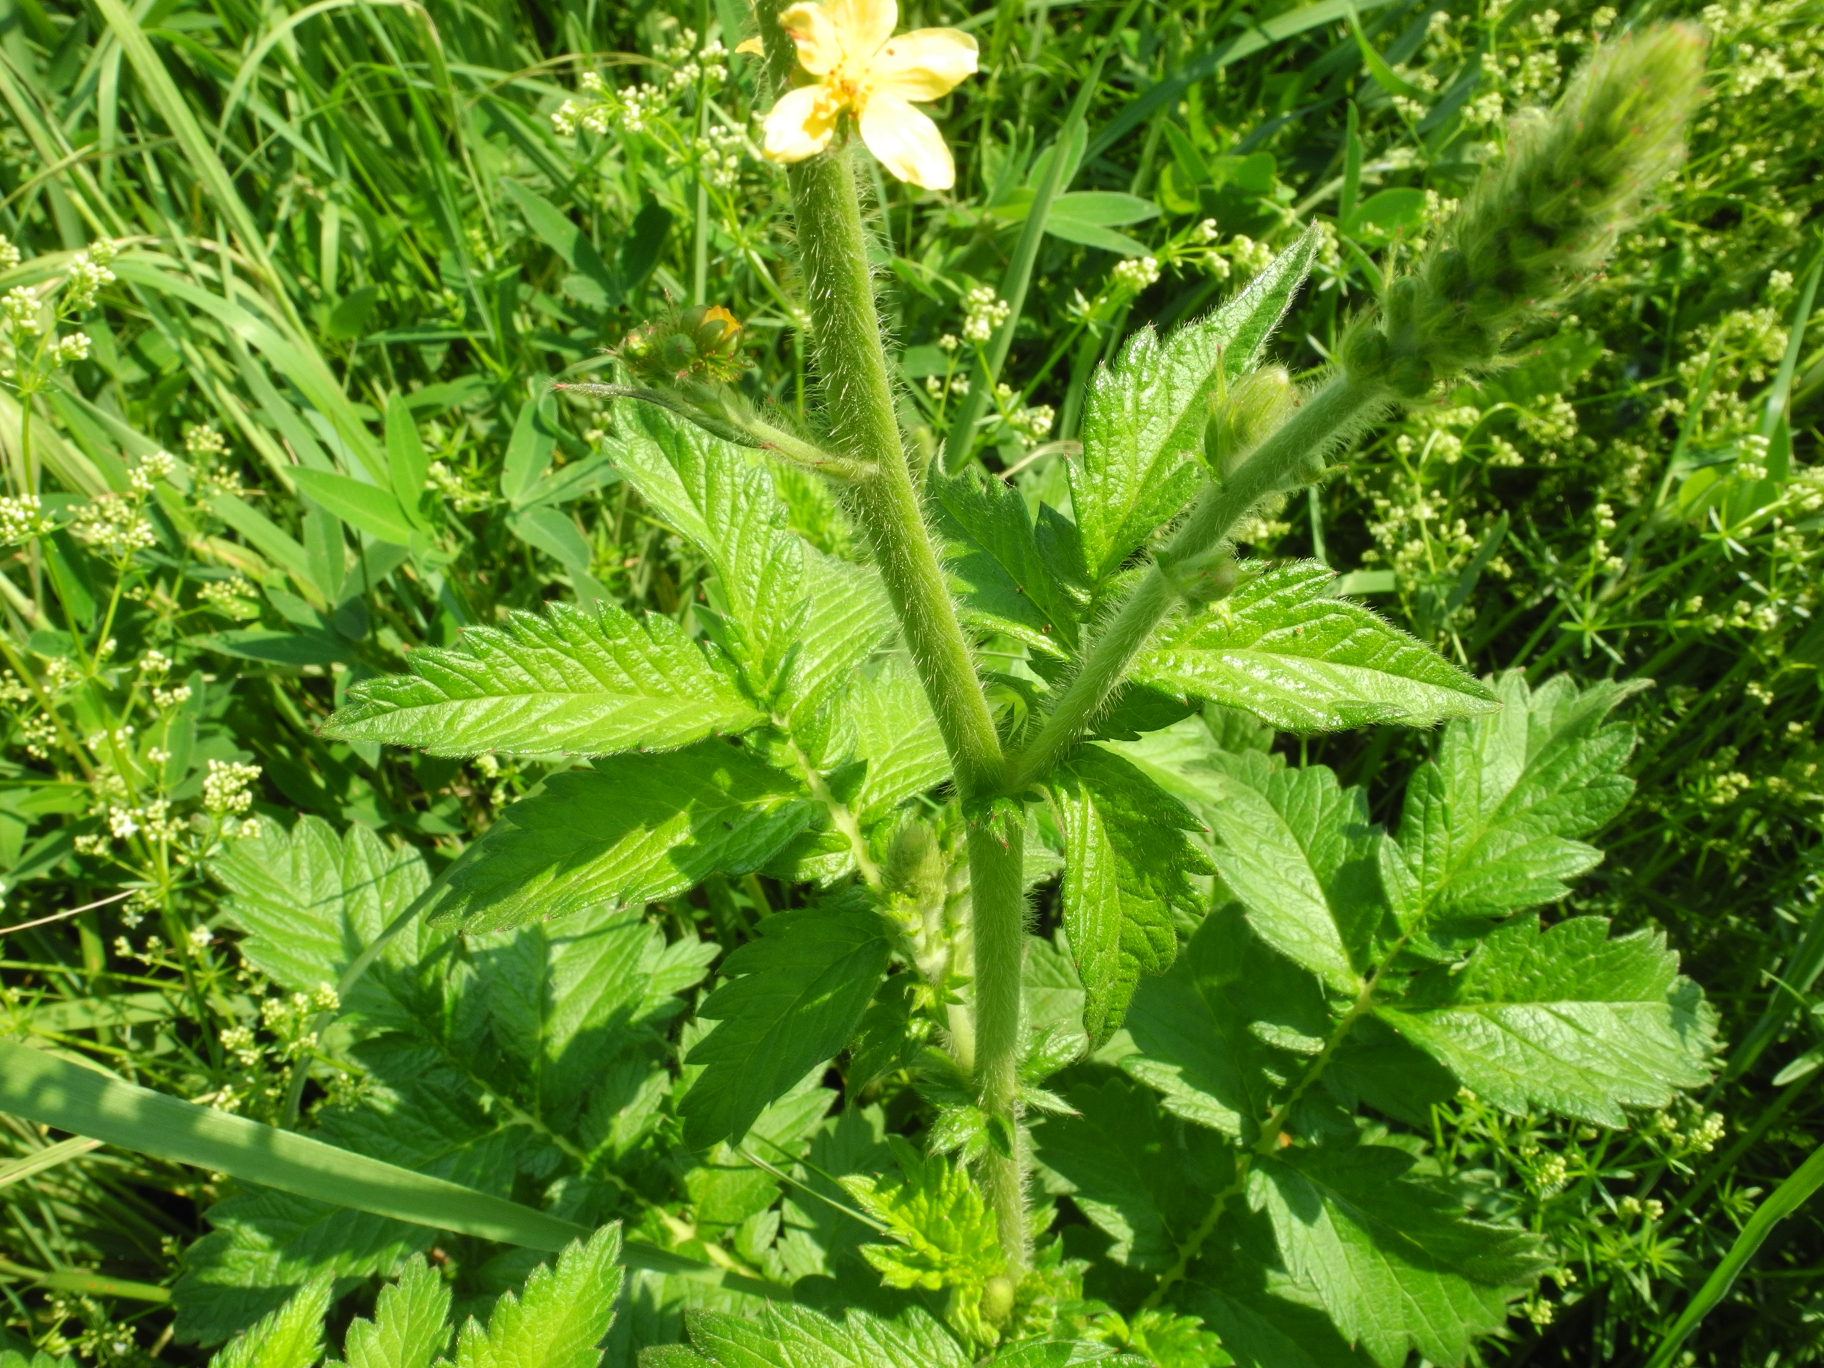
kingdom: Plantae
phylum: Tracheophyta
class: Magnoliopsida
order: Rosales
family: Rosaceae
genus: Agrimonia
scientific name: Agrimonia eupatoria
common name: Agrimony
